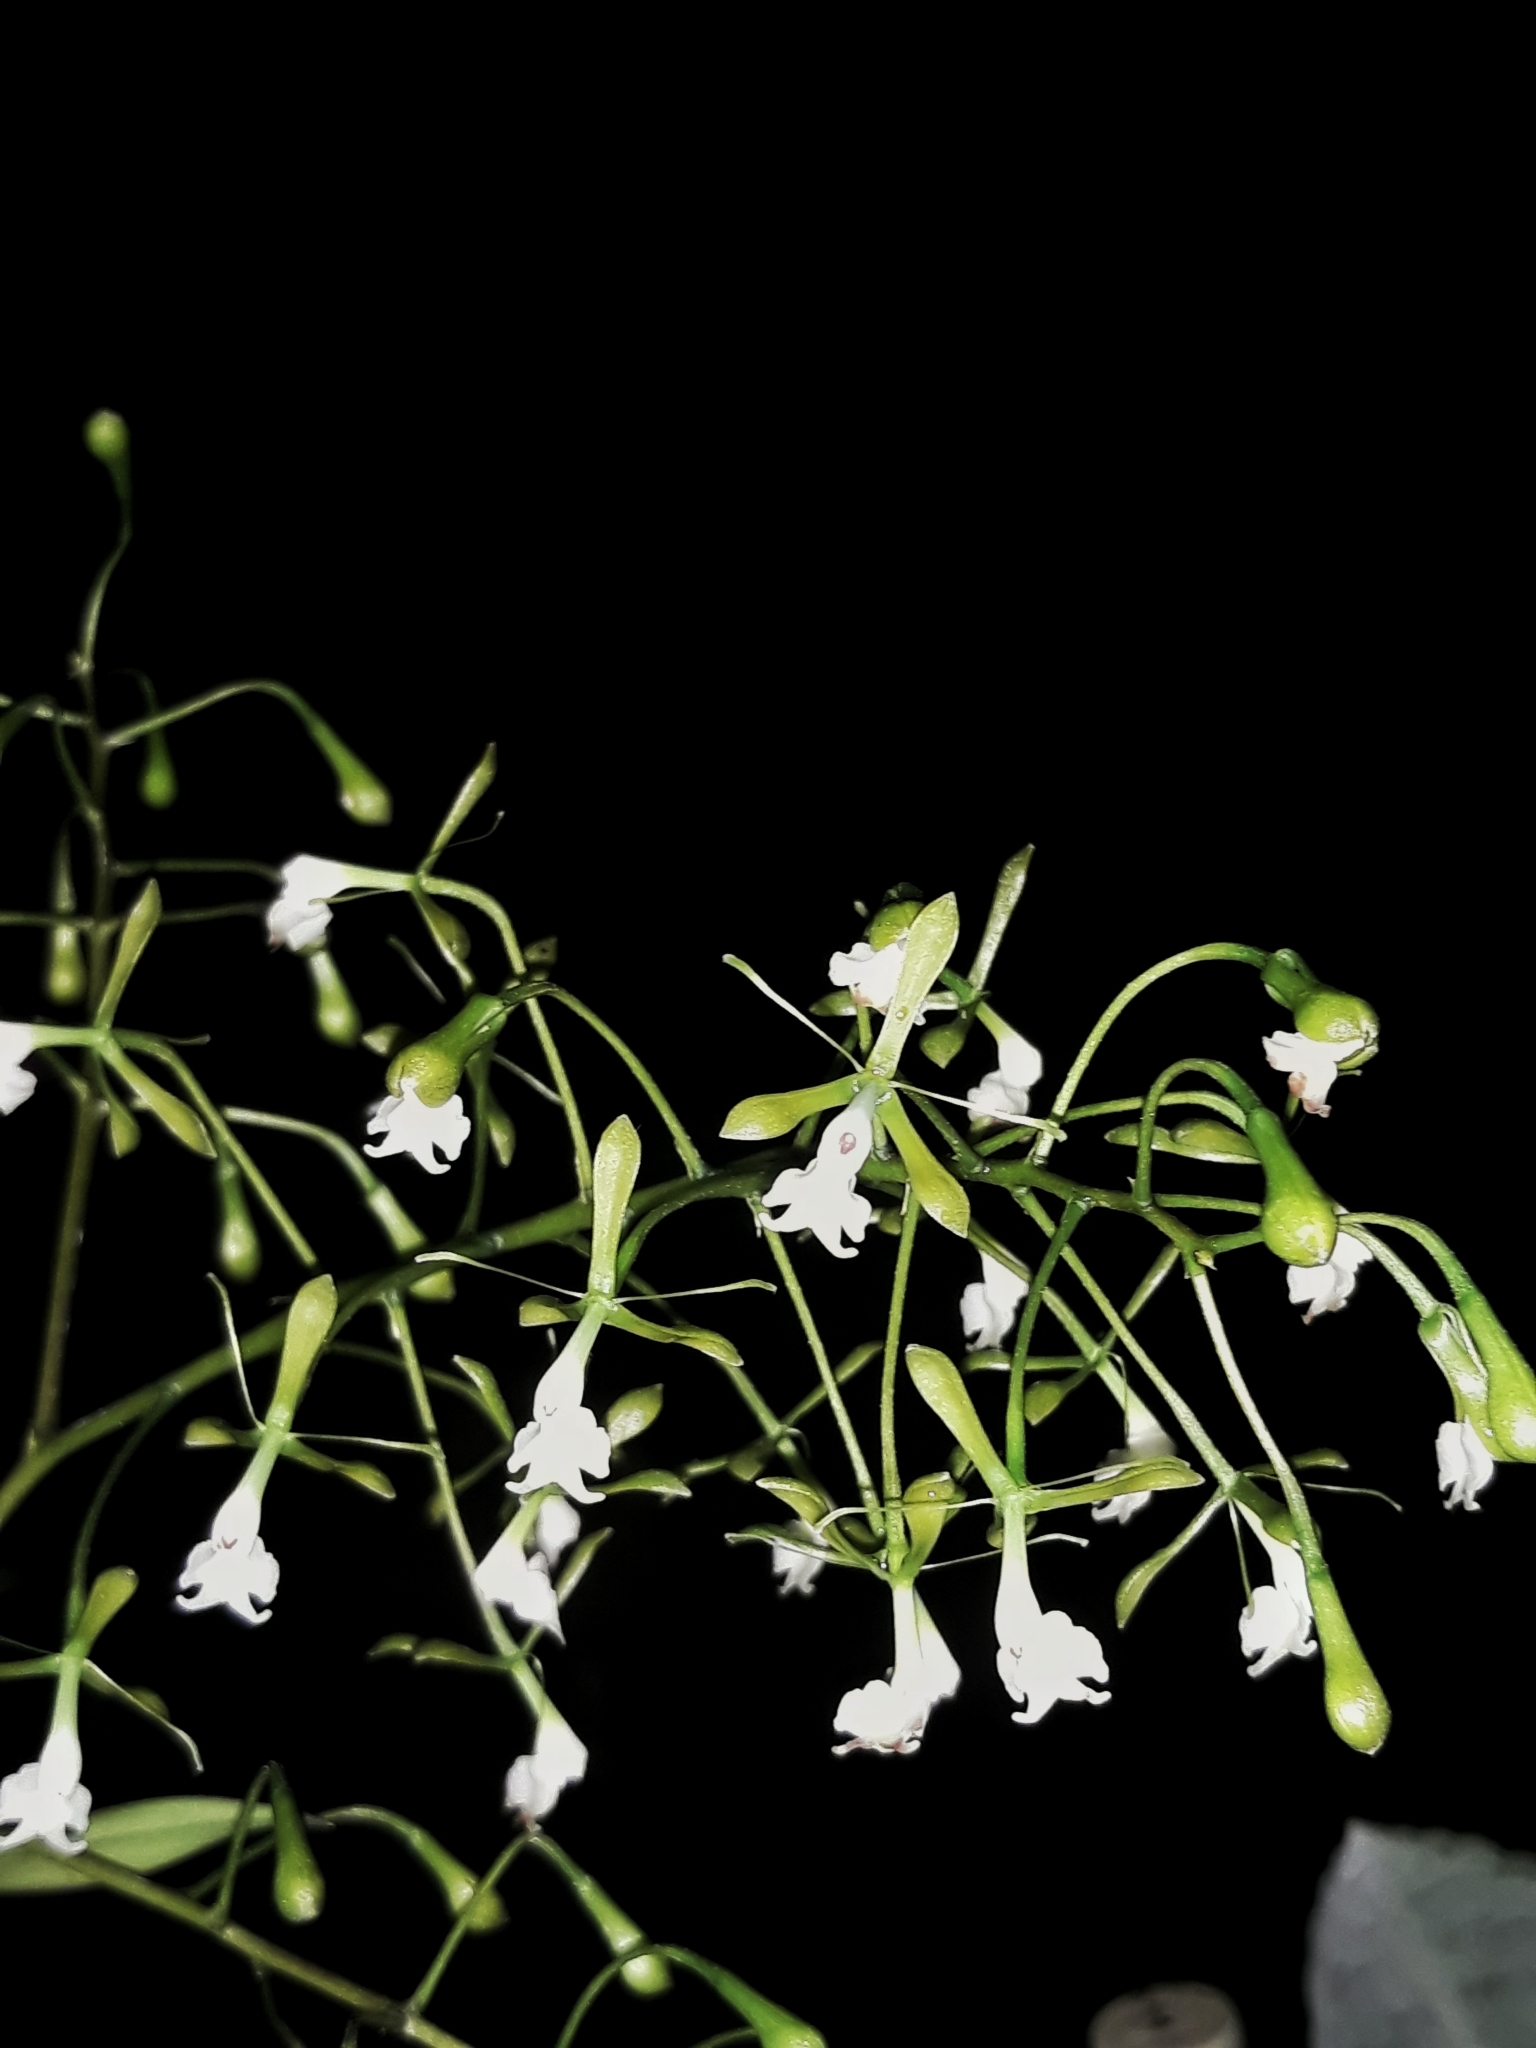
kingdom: Plantae
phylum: Tracheophyta
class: Liliopsida
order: Asparagales
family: Orchidaceae
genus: Epidendrum
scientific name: Epidendrum veroscriptum
